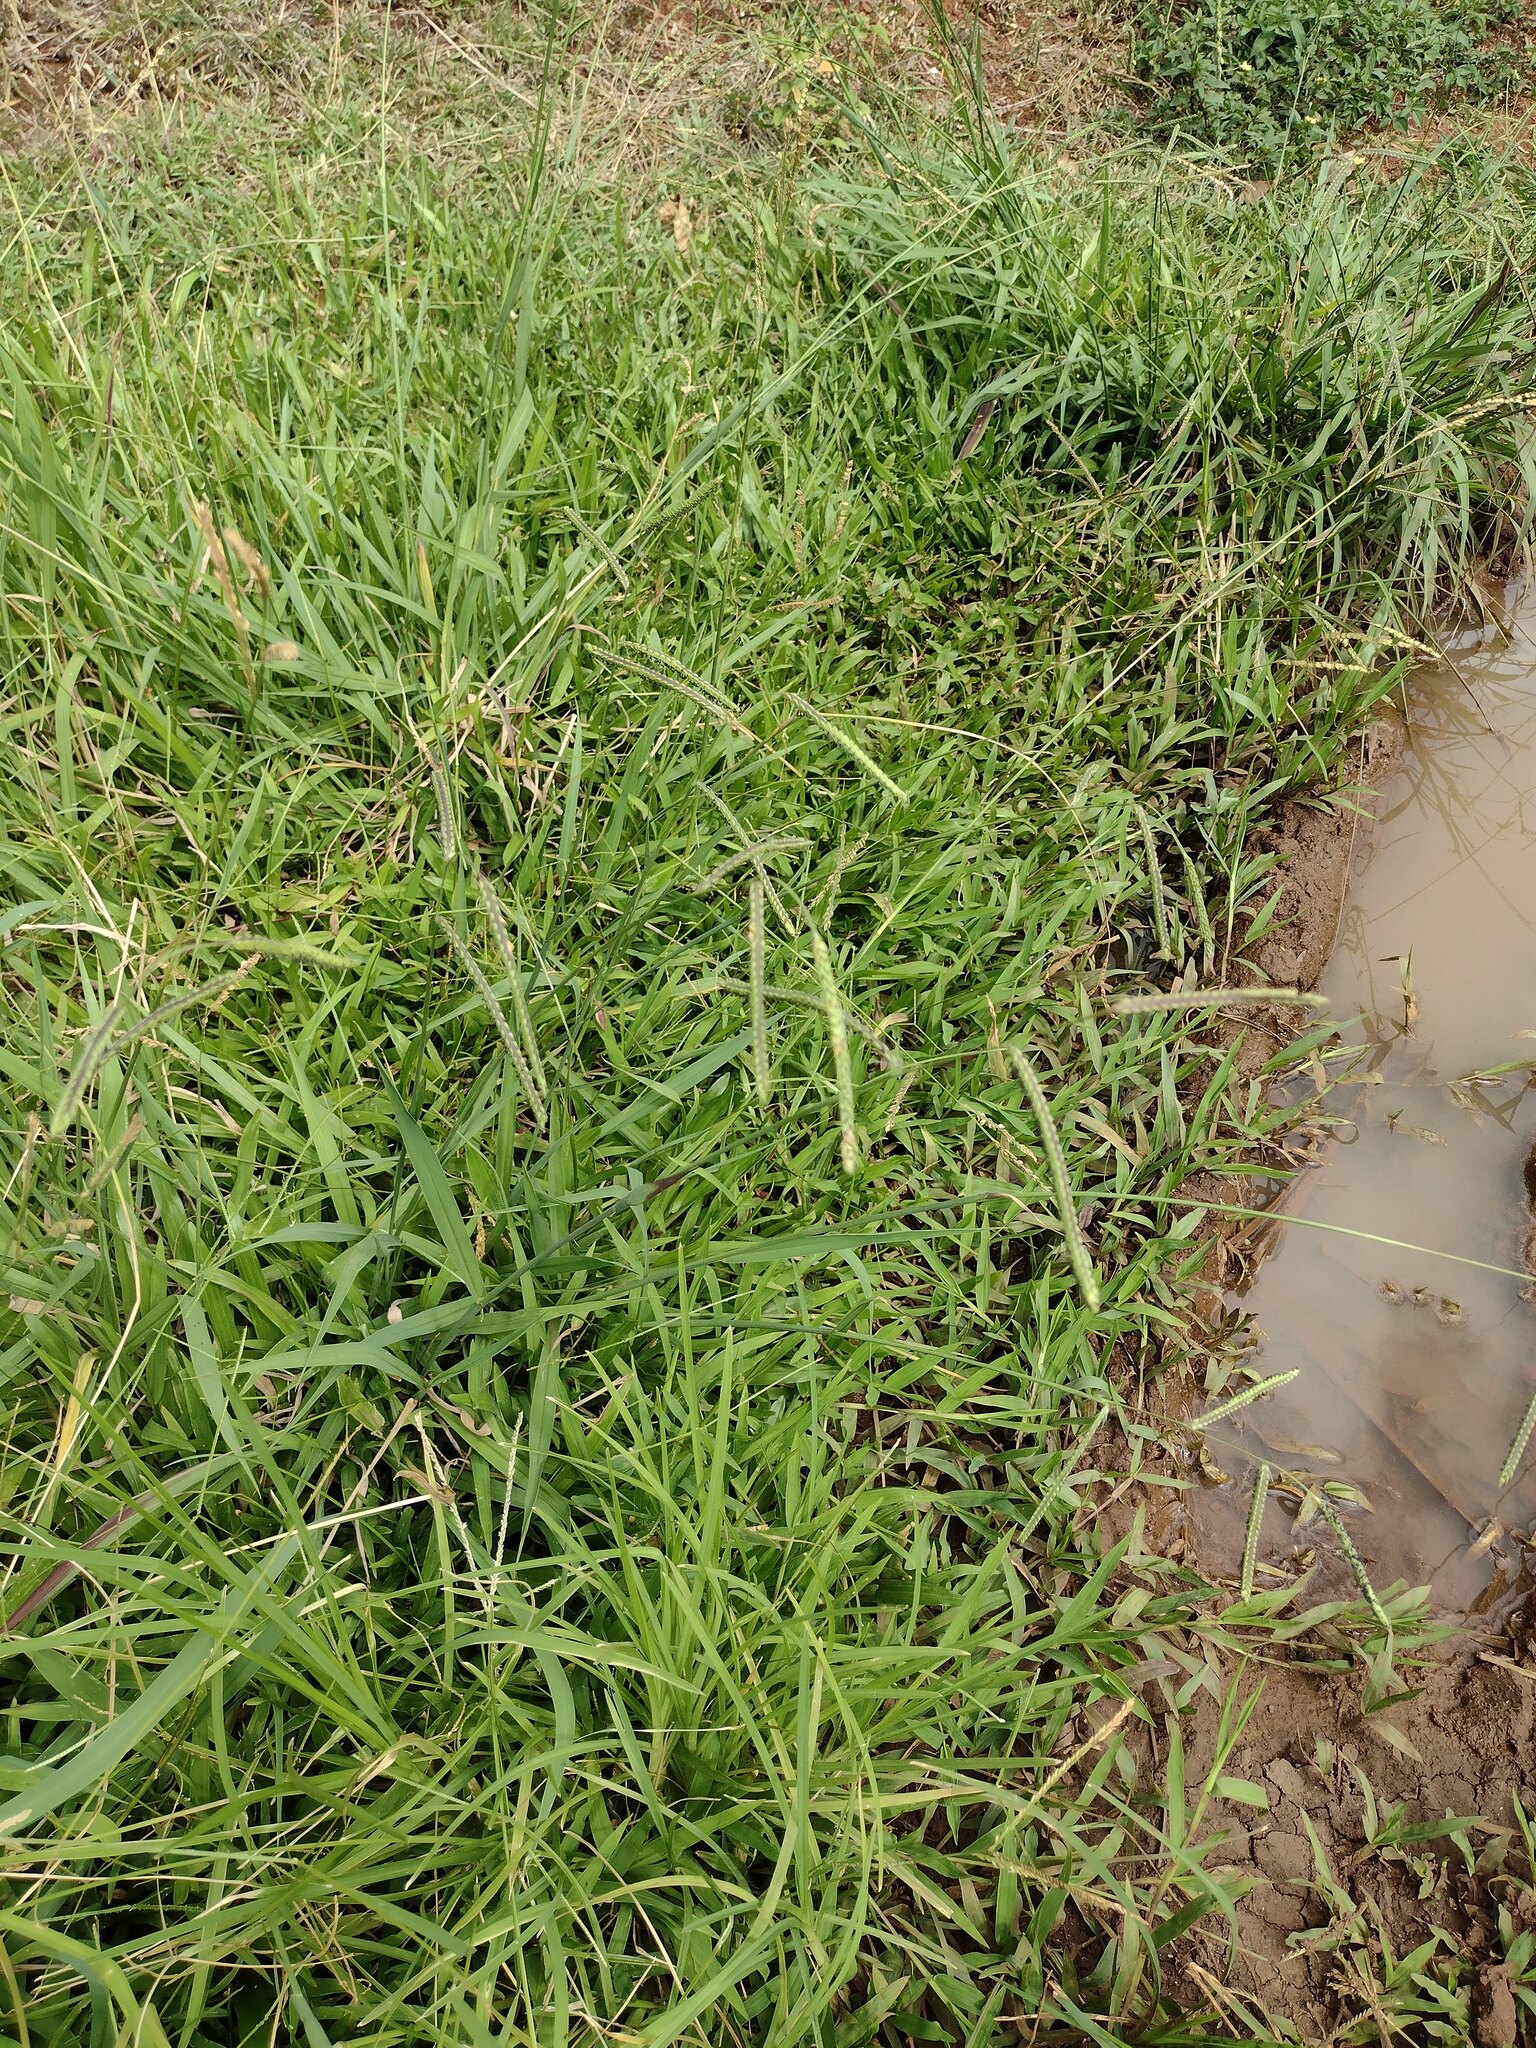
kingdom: Plantae
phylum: Tracheophyta
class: Liliopsida
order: Poales
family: Poaceae
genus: Paspalum
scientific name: Paspalum dilatatum
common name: Dallisgrass
